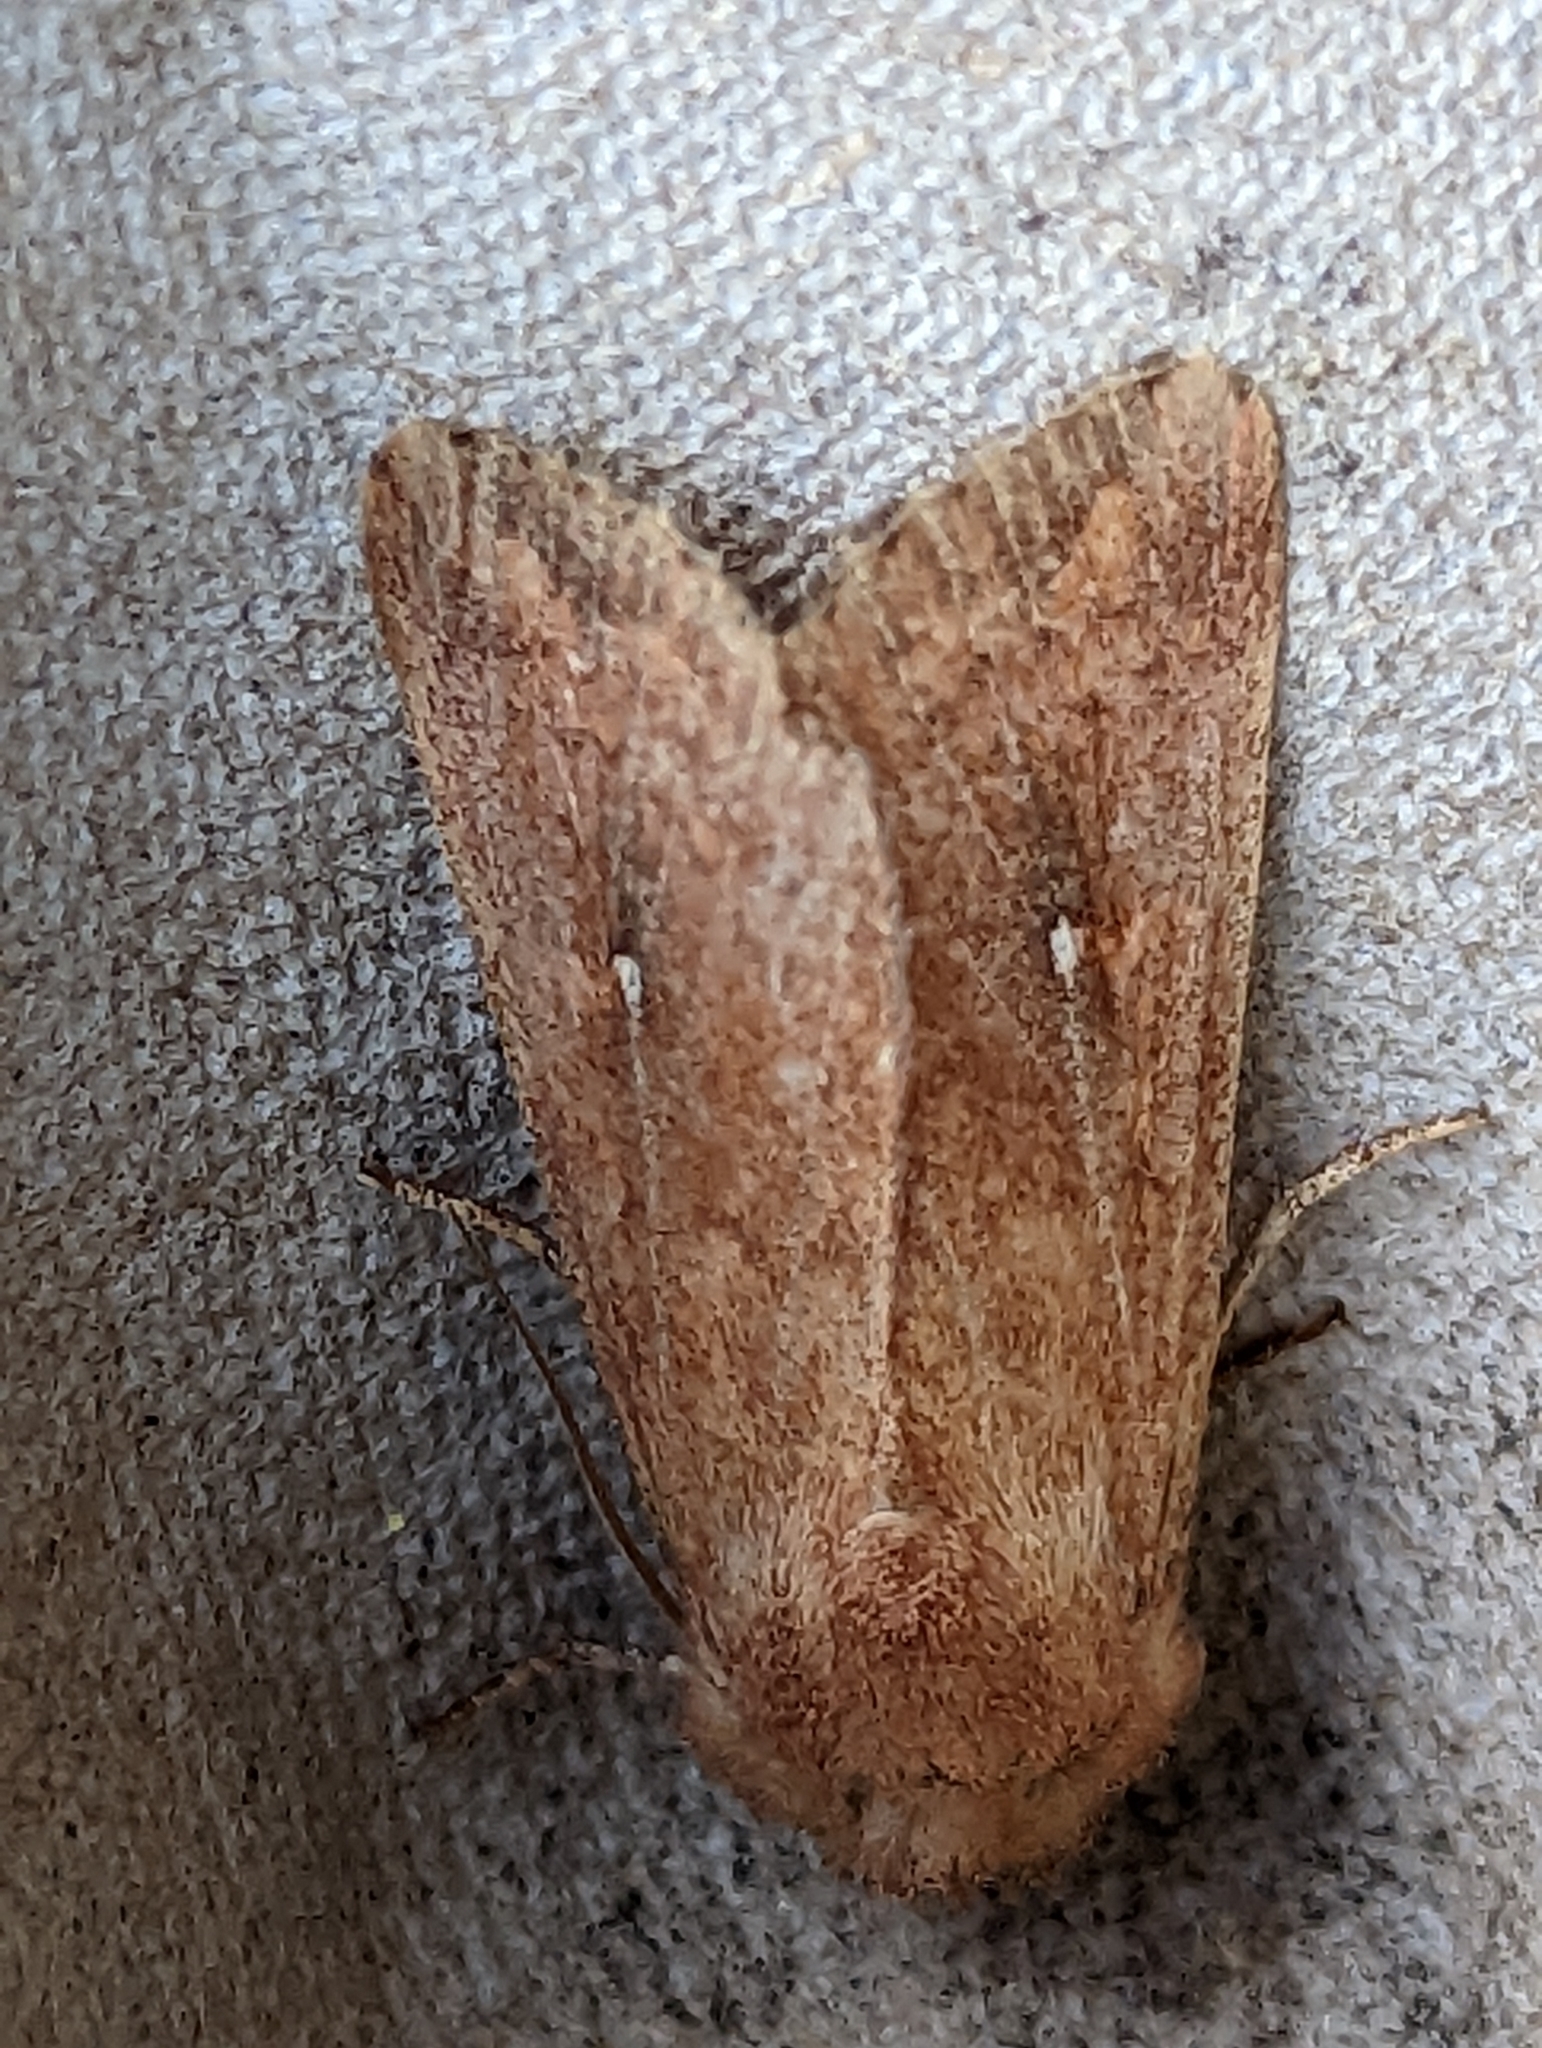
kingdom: Animalia
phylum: Arthropoda
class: Insecta
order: Lepidoptera
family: Noctuidae
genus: Mythimna
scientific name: Mythimna albipuncta
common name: White-point
